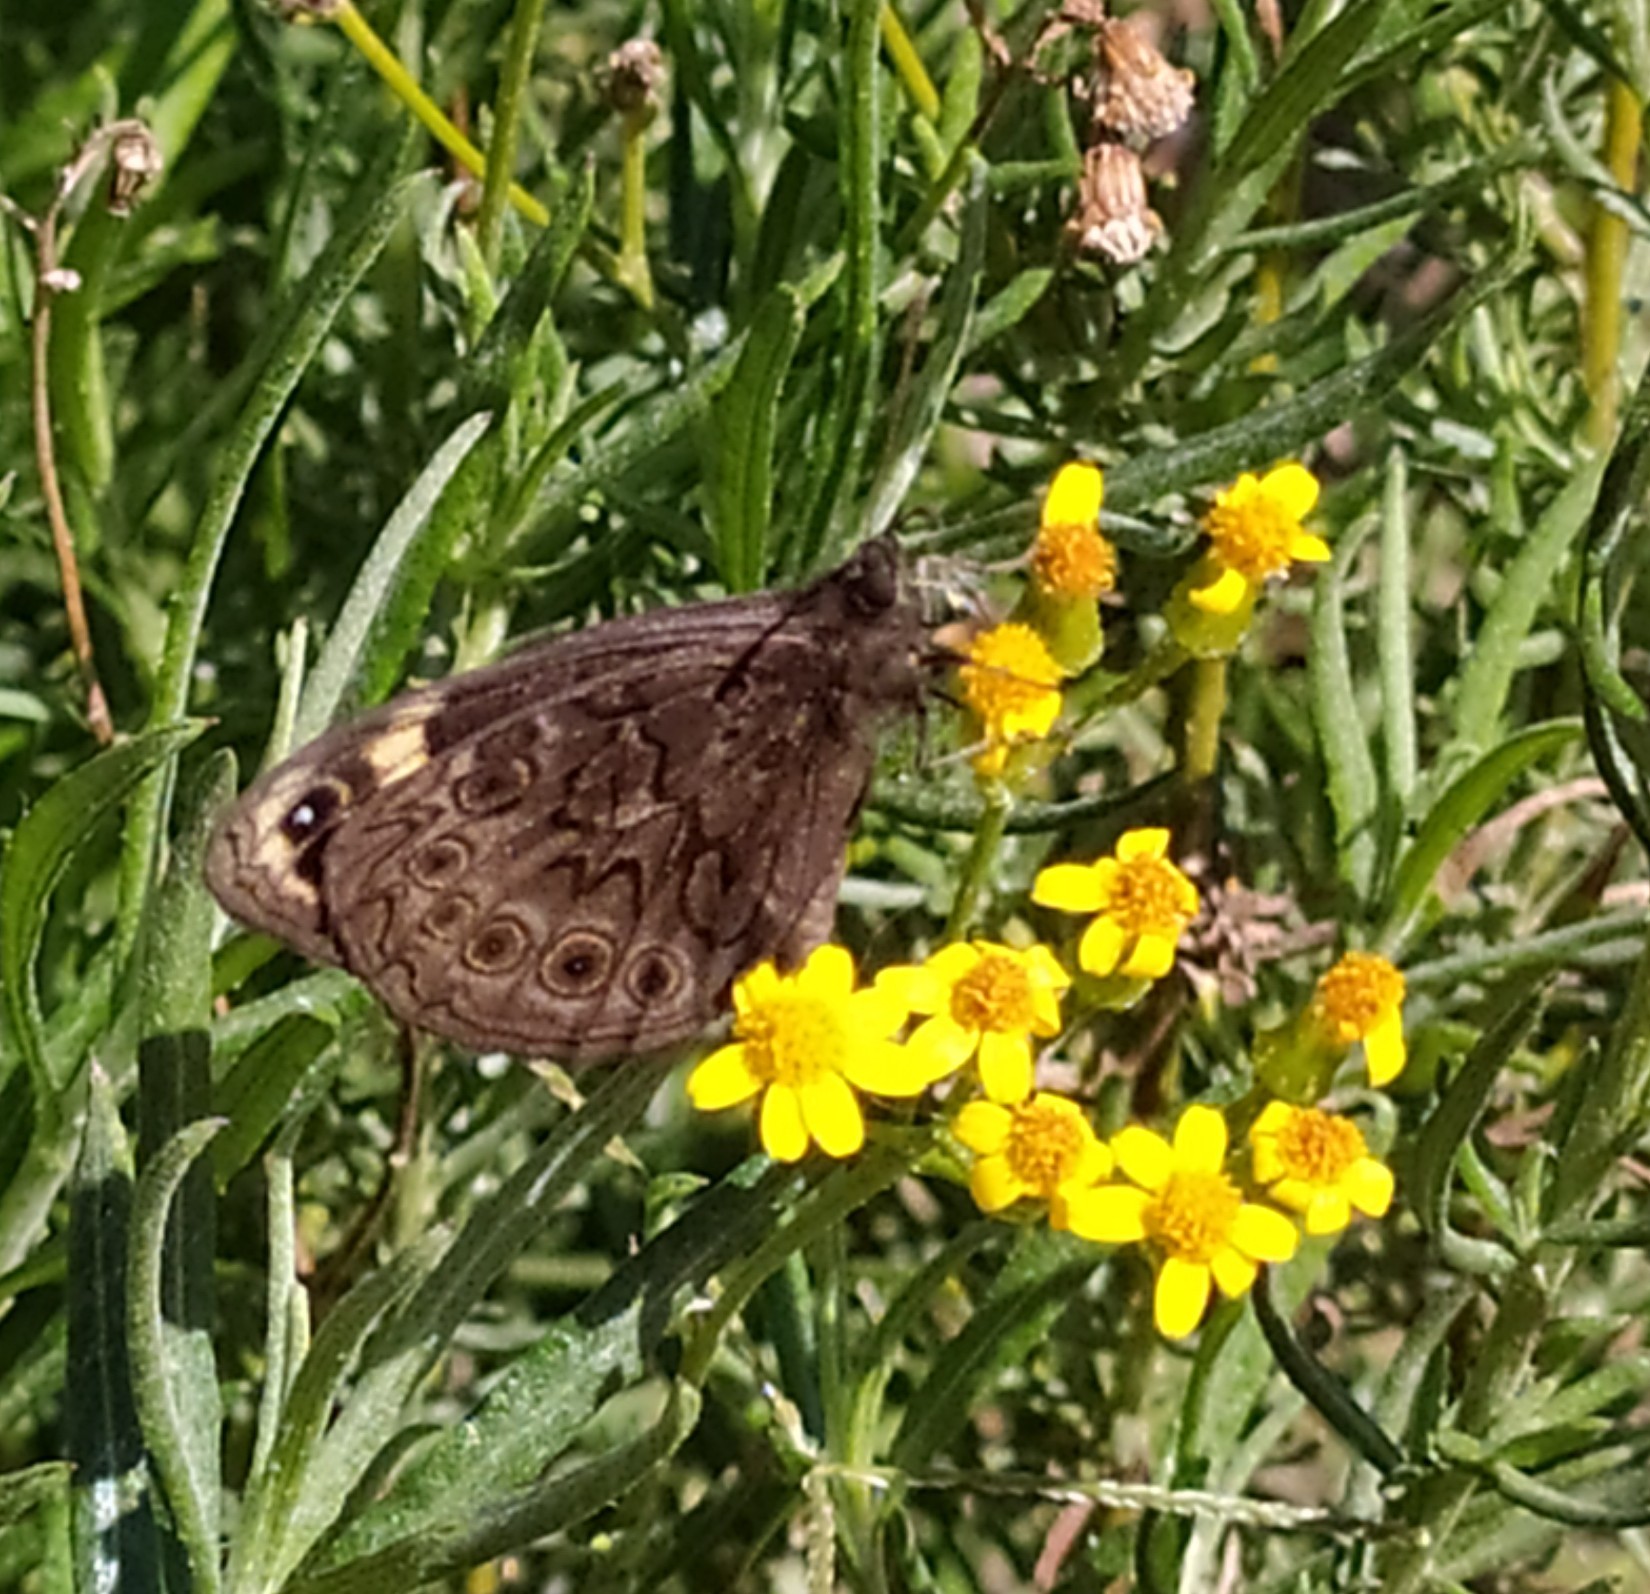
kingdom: Animalia
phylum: Arthropoda
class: Insecta
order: Lepidoptera
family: Nymphalidae
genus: Dira
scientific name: Dira clytus
